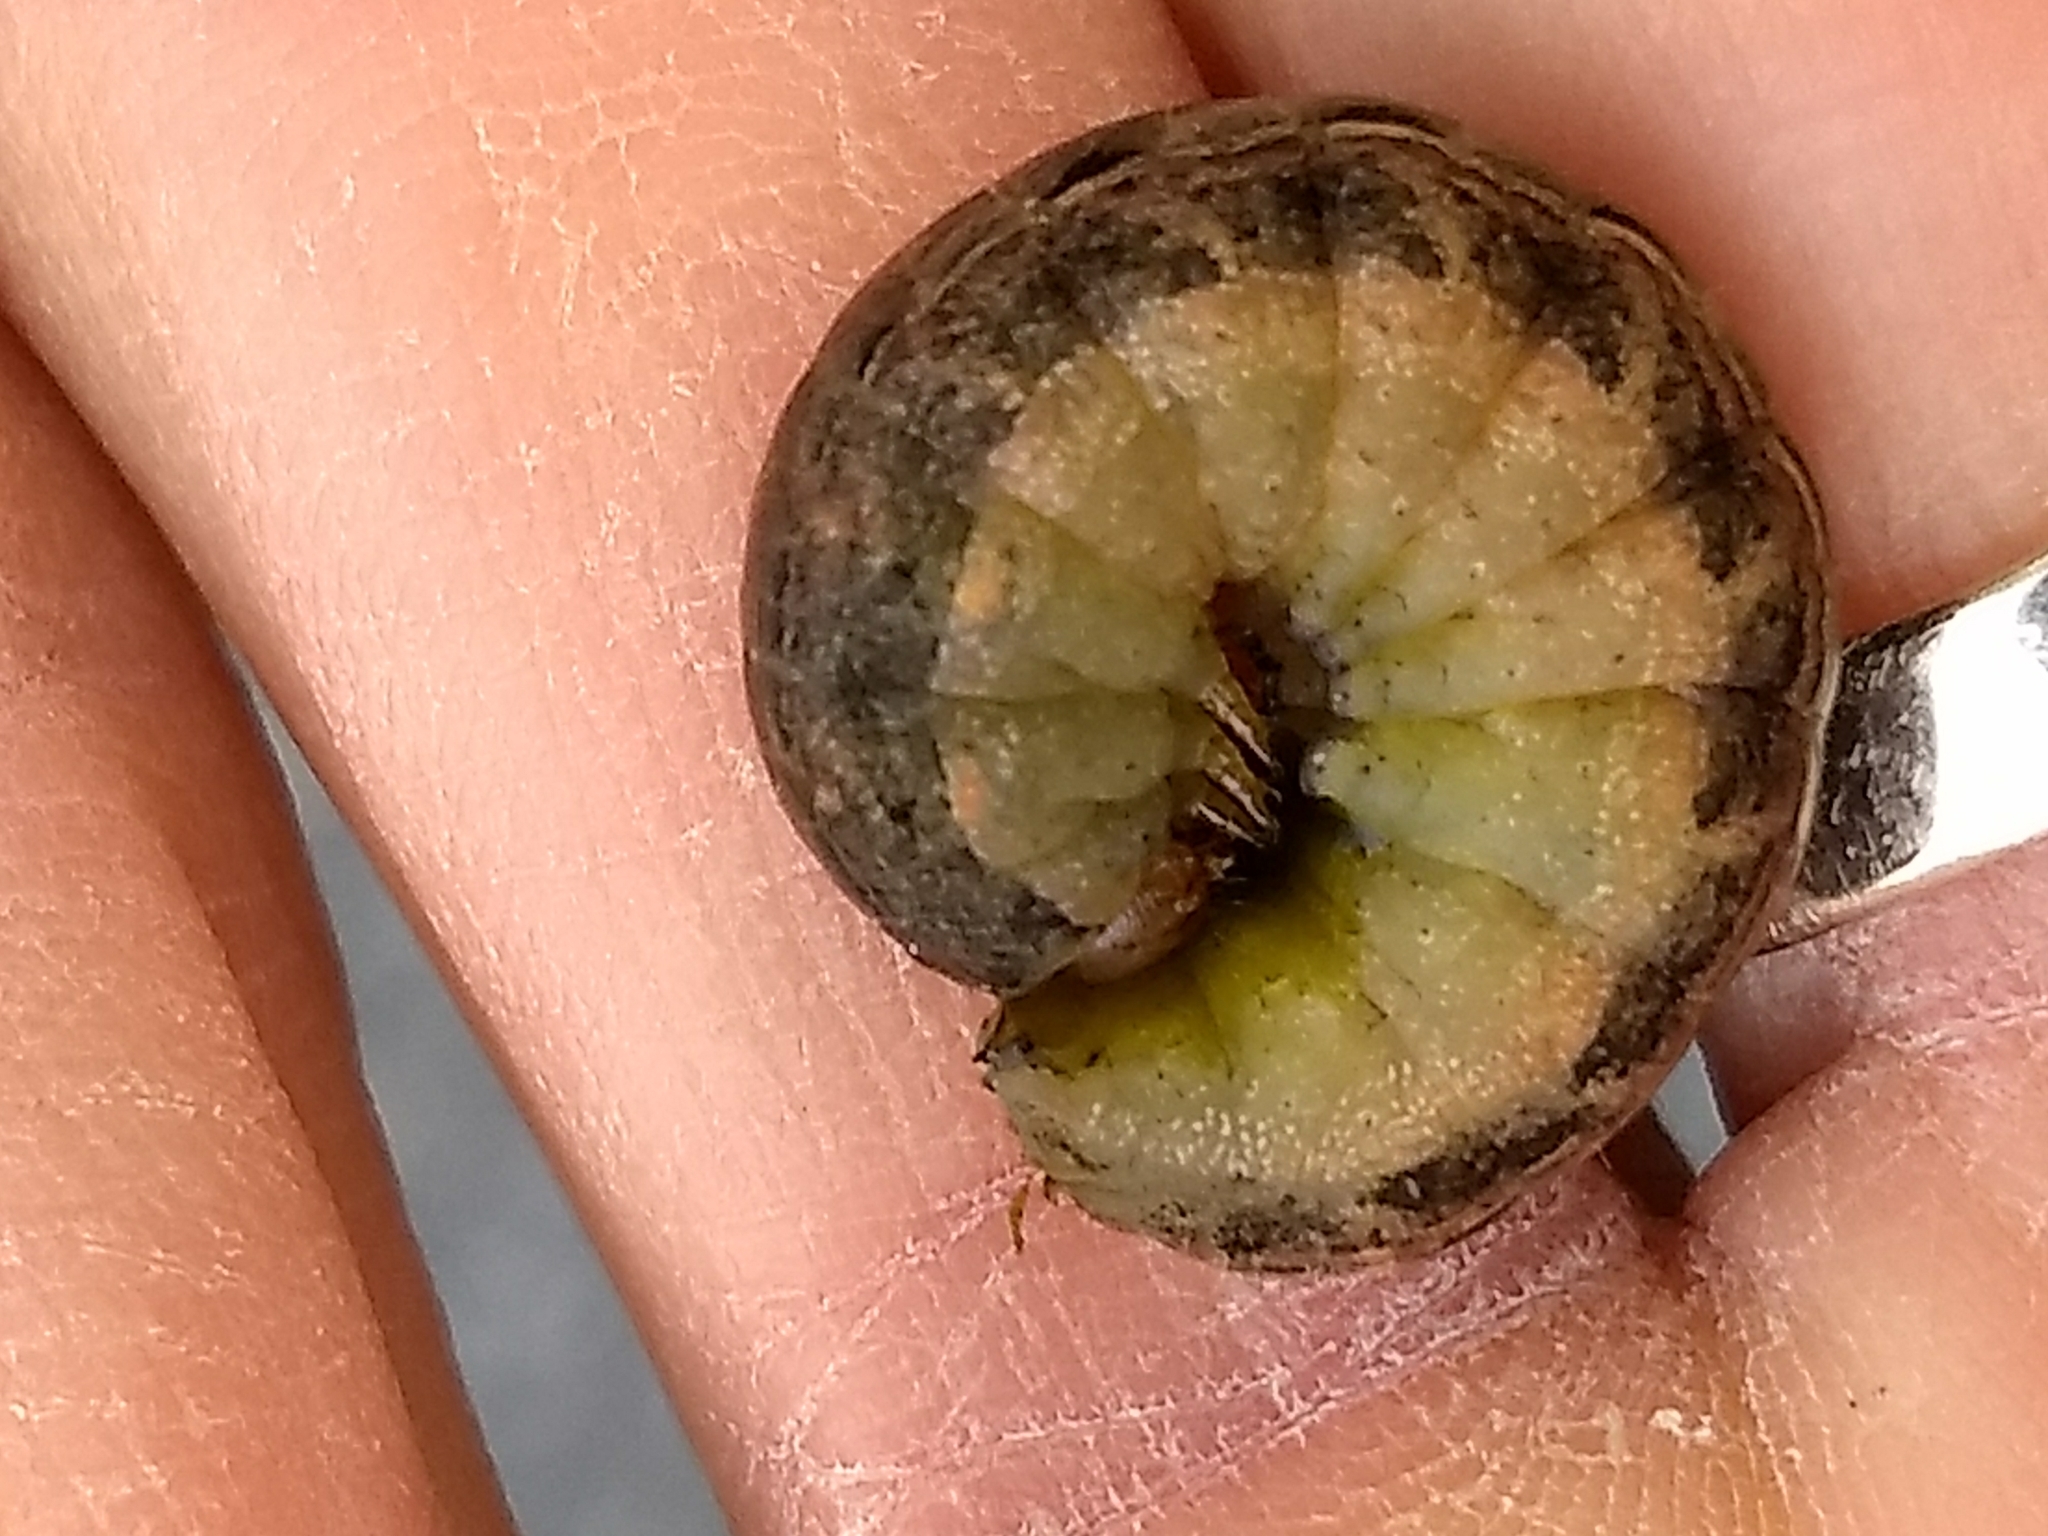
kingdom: Animalia
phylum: Arthropoda
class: Insecta
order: Lepidoptera
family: Noctuidae
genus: Noctua
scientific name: Noctua pronuba
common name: Large yellow underwing
